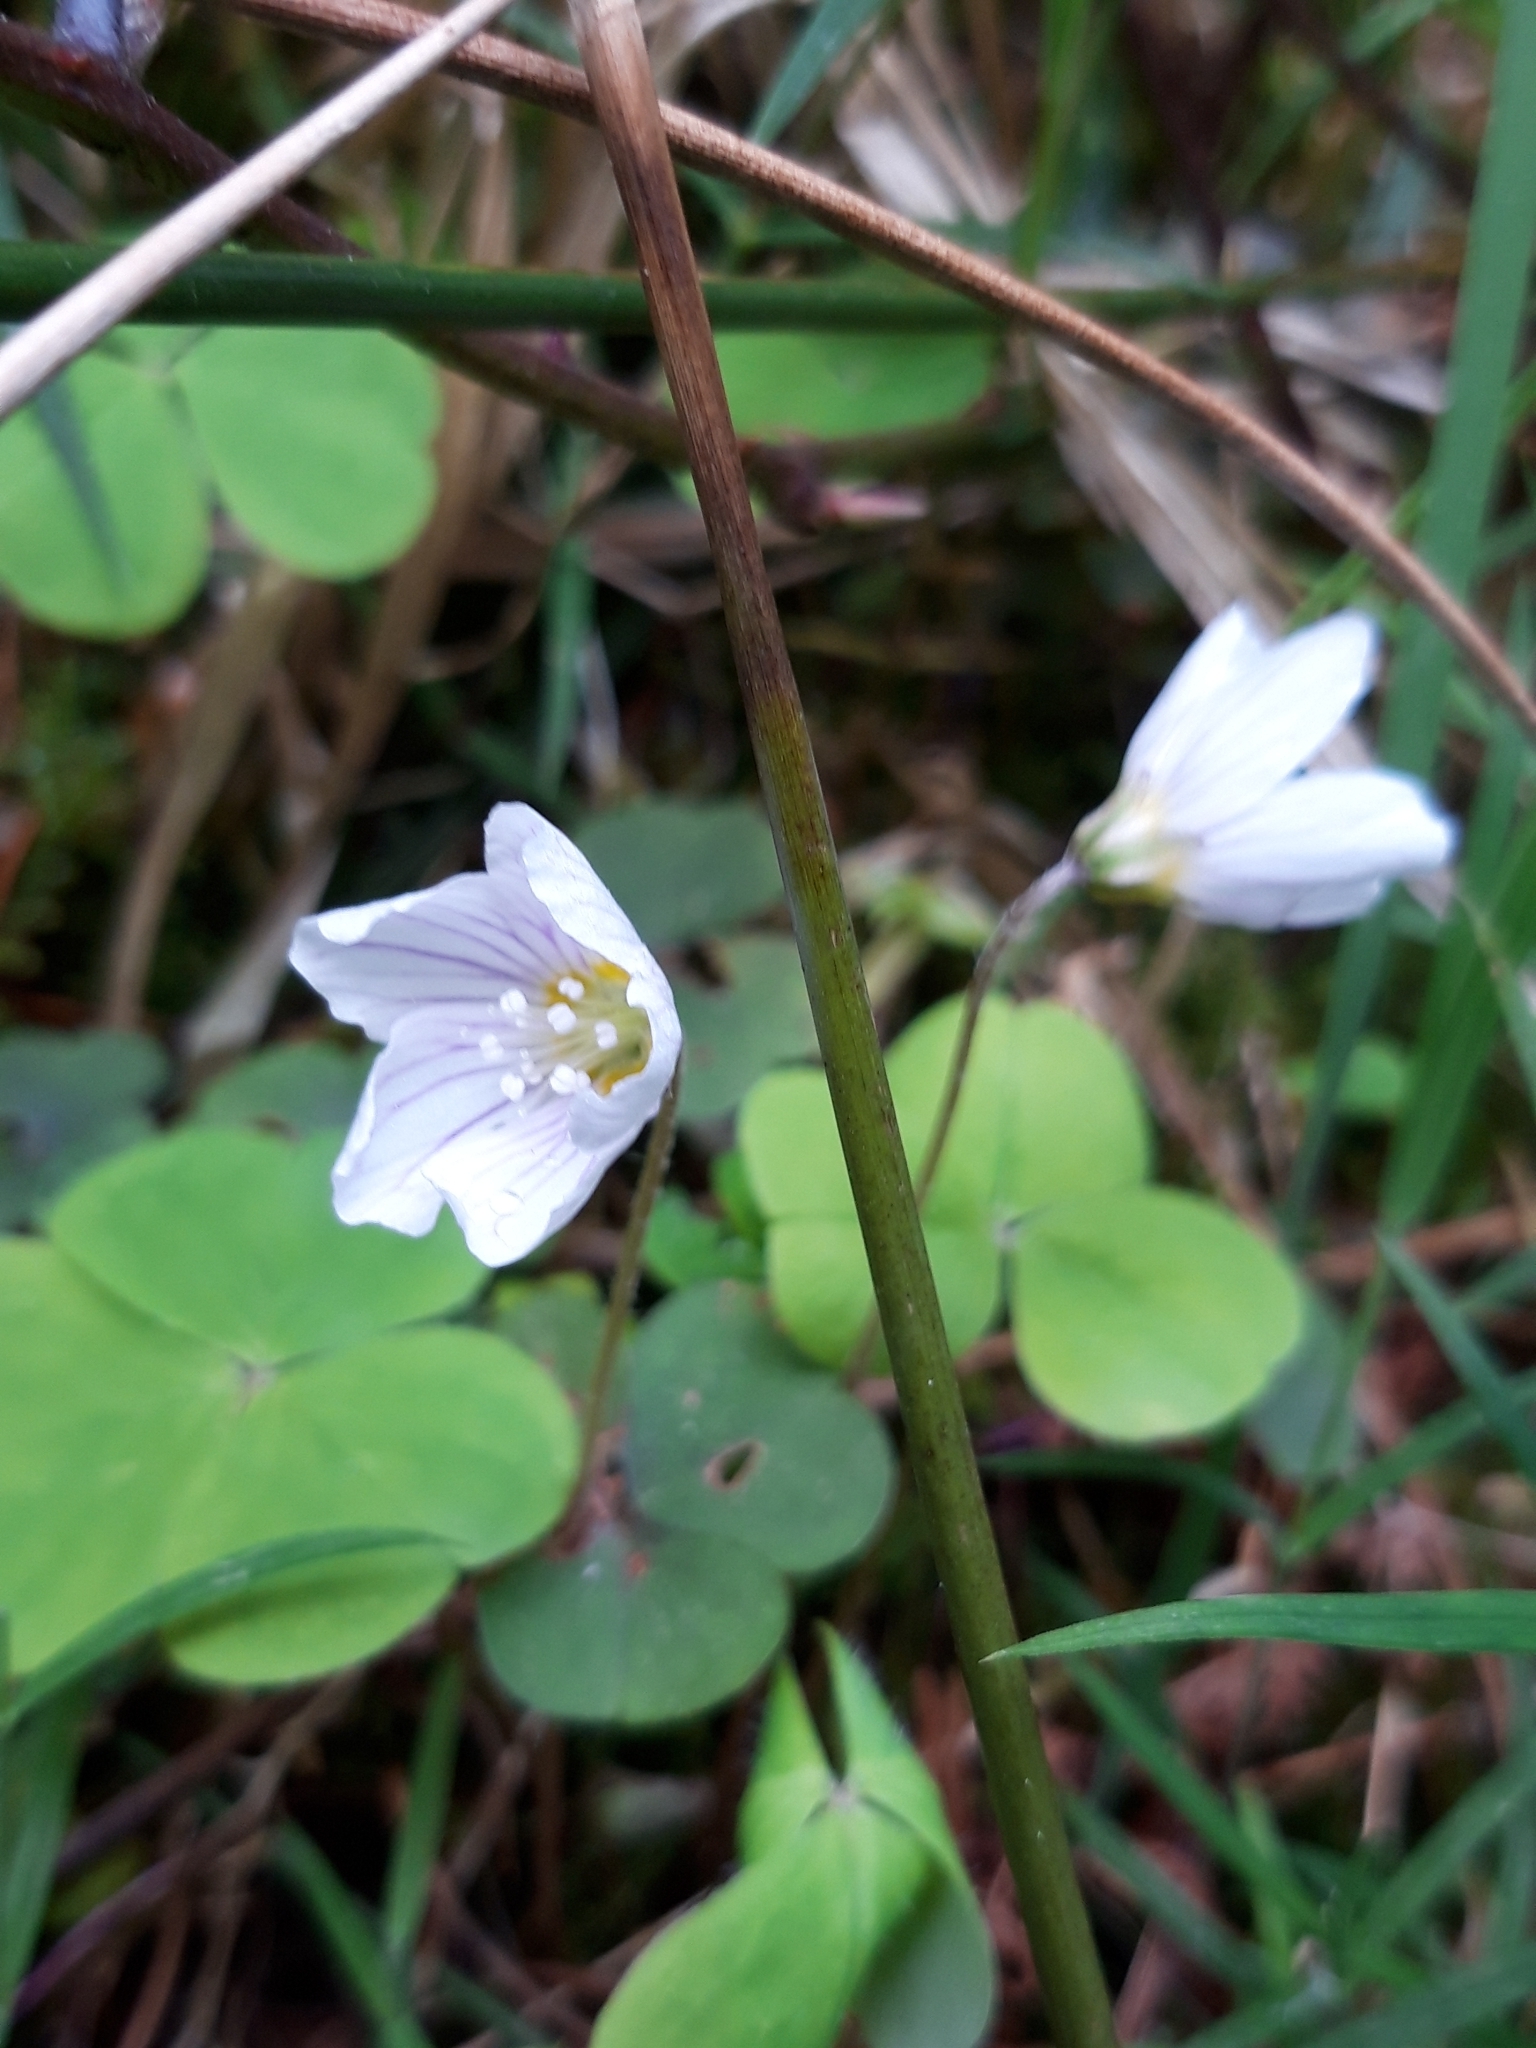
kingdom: Plantae
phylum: Tracheophyta
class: Magnoliopsida
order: Oxalidales
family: Oxalidaceae
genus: Oxalis
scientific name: Oxalis acetosella
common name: Wood-sorrel
